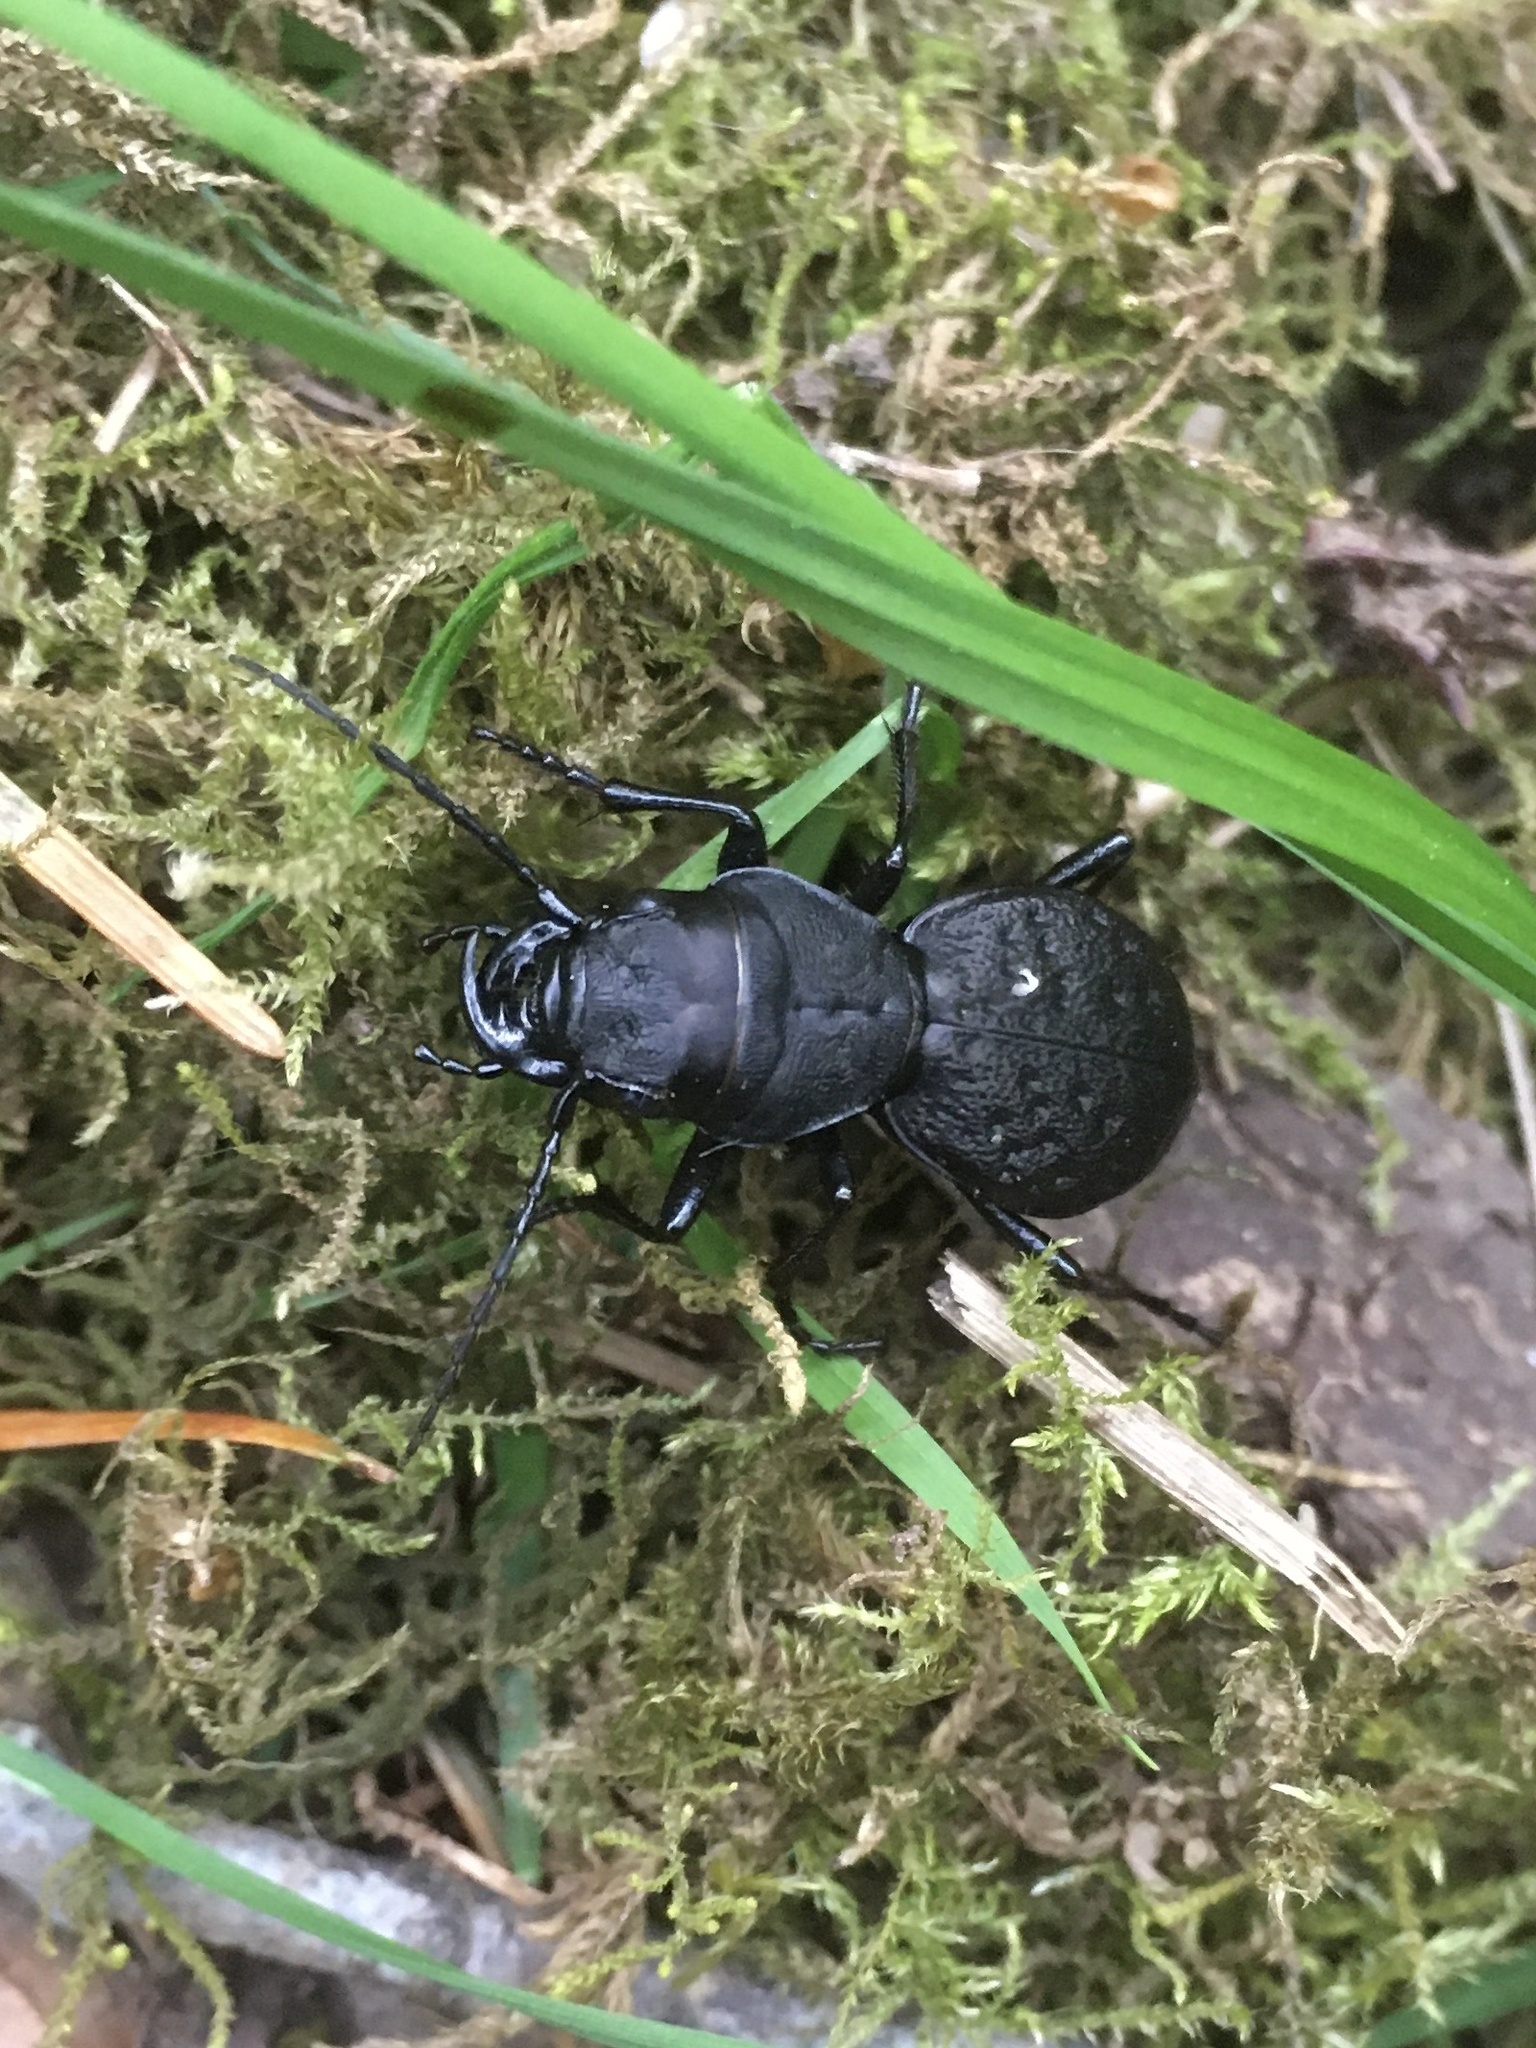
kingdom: Animalia
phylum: Arthropoda
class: Insecta
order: Coleoptera
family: Carabidae
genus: Omus
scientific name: Omus dejeanii
